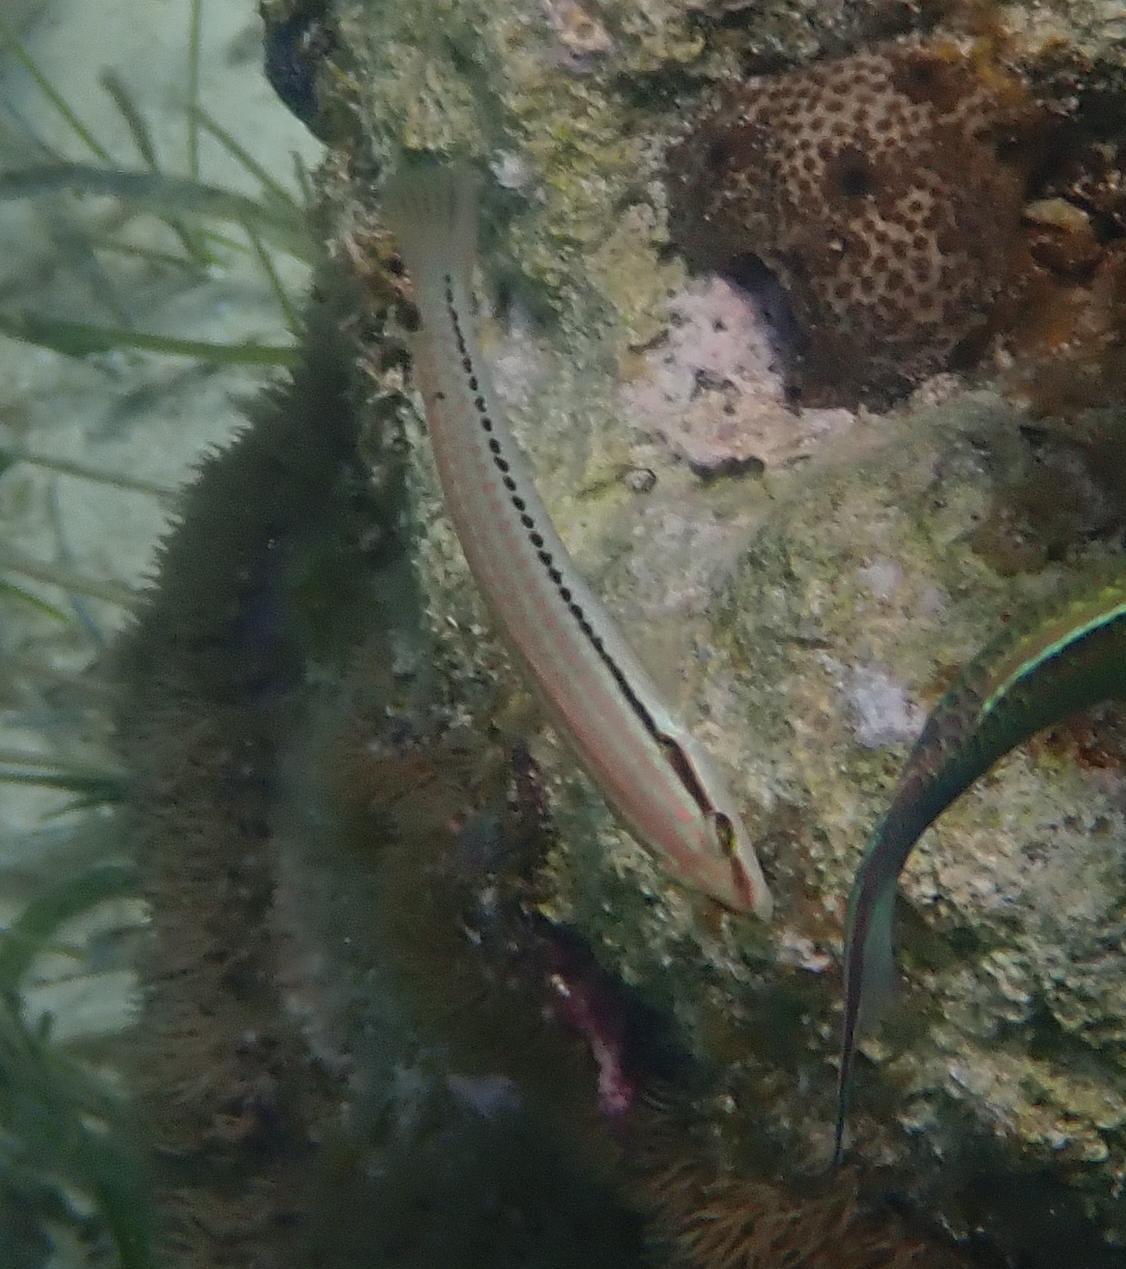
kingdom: Animalia
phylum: Chordata
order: Perciformes
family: Labridae
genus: Halichoeres
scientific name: Halichoeres bivittatus
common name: Slippery dick
